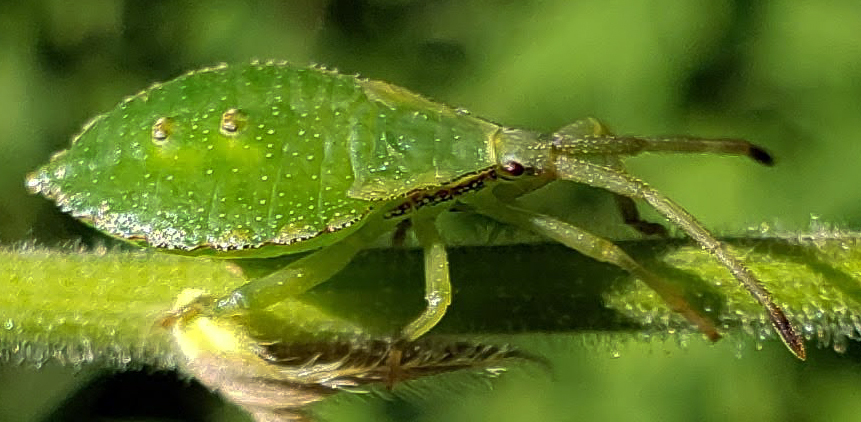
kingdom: Animalia
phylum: Arthropoda
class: Insecta
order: Hemiptera
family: Coreidae
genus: Piezogaster
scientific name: Piezogaster calcarator
